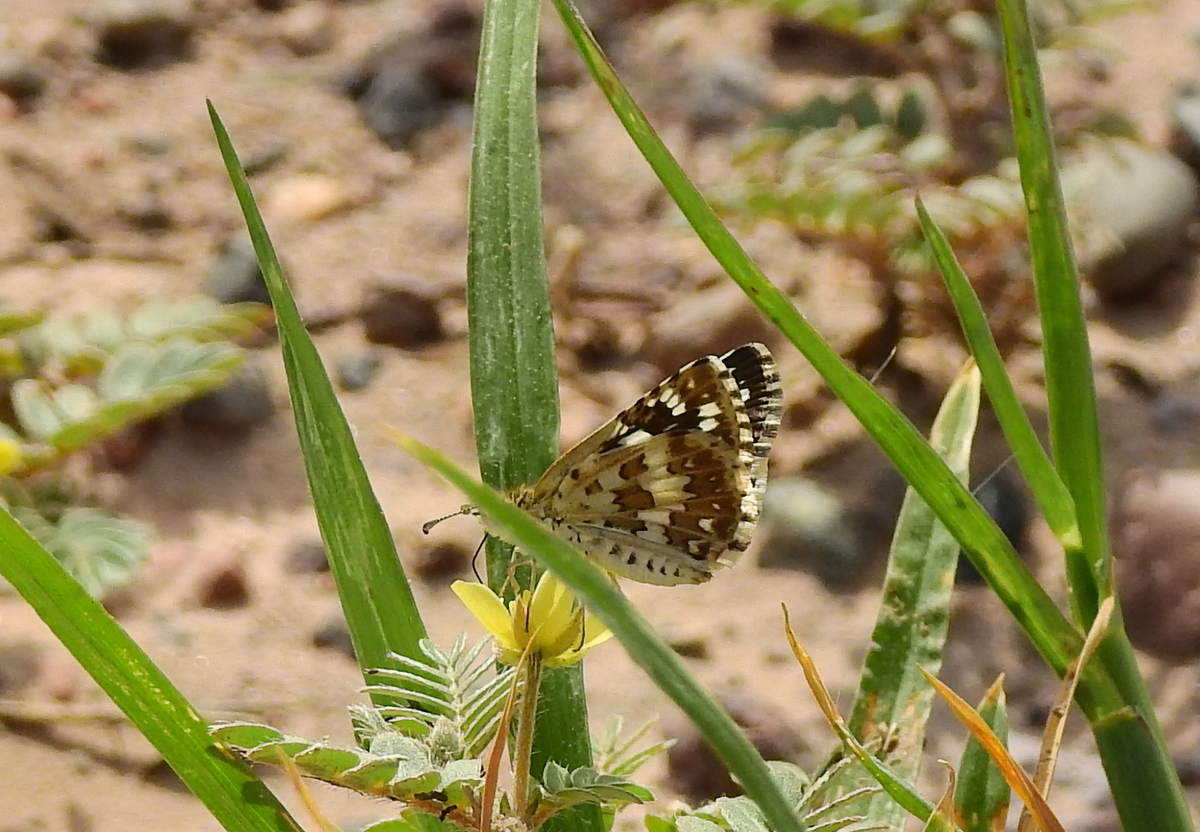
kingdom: Animalia
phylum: Arthropoda
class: Insecta
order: Lepidoptera
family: Hesperiidae
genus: Burnsius
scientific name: Burnsius orcynoides
